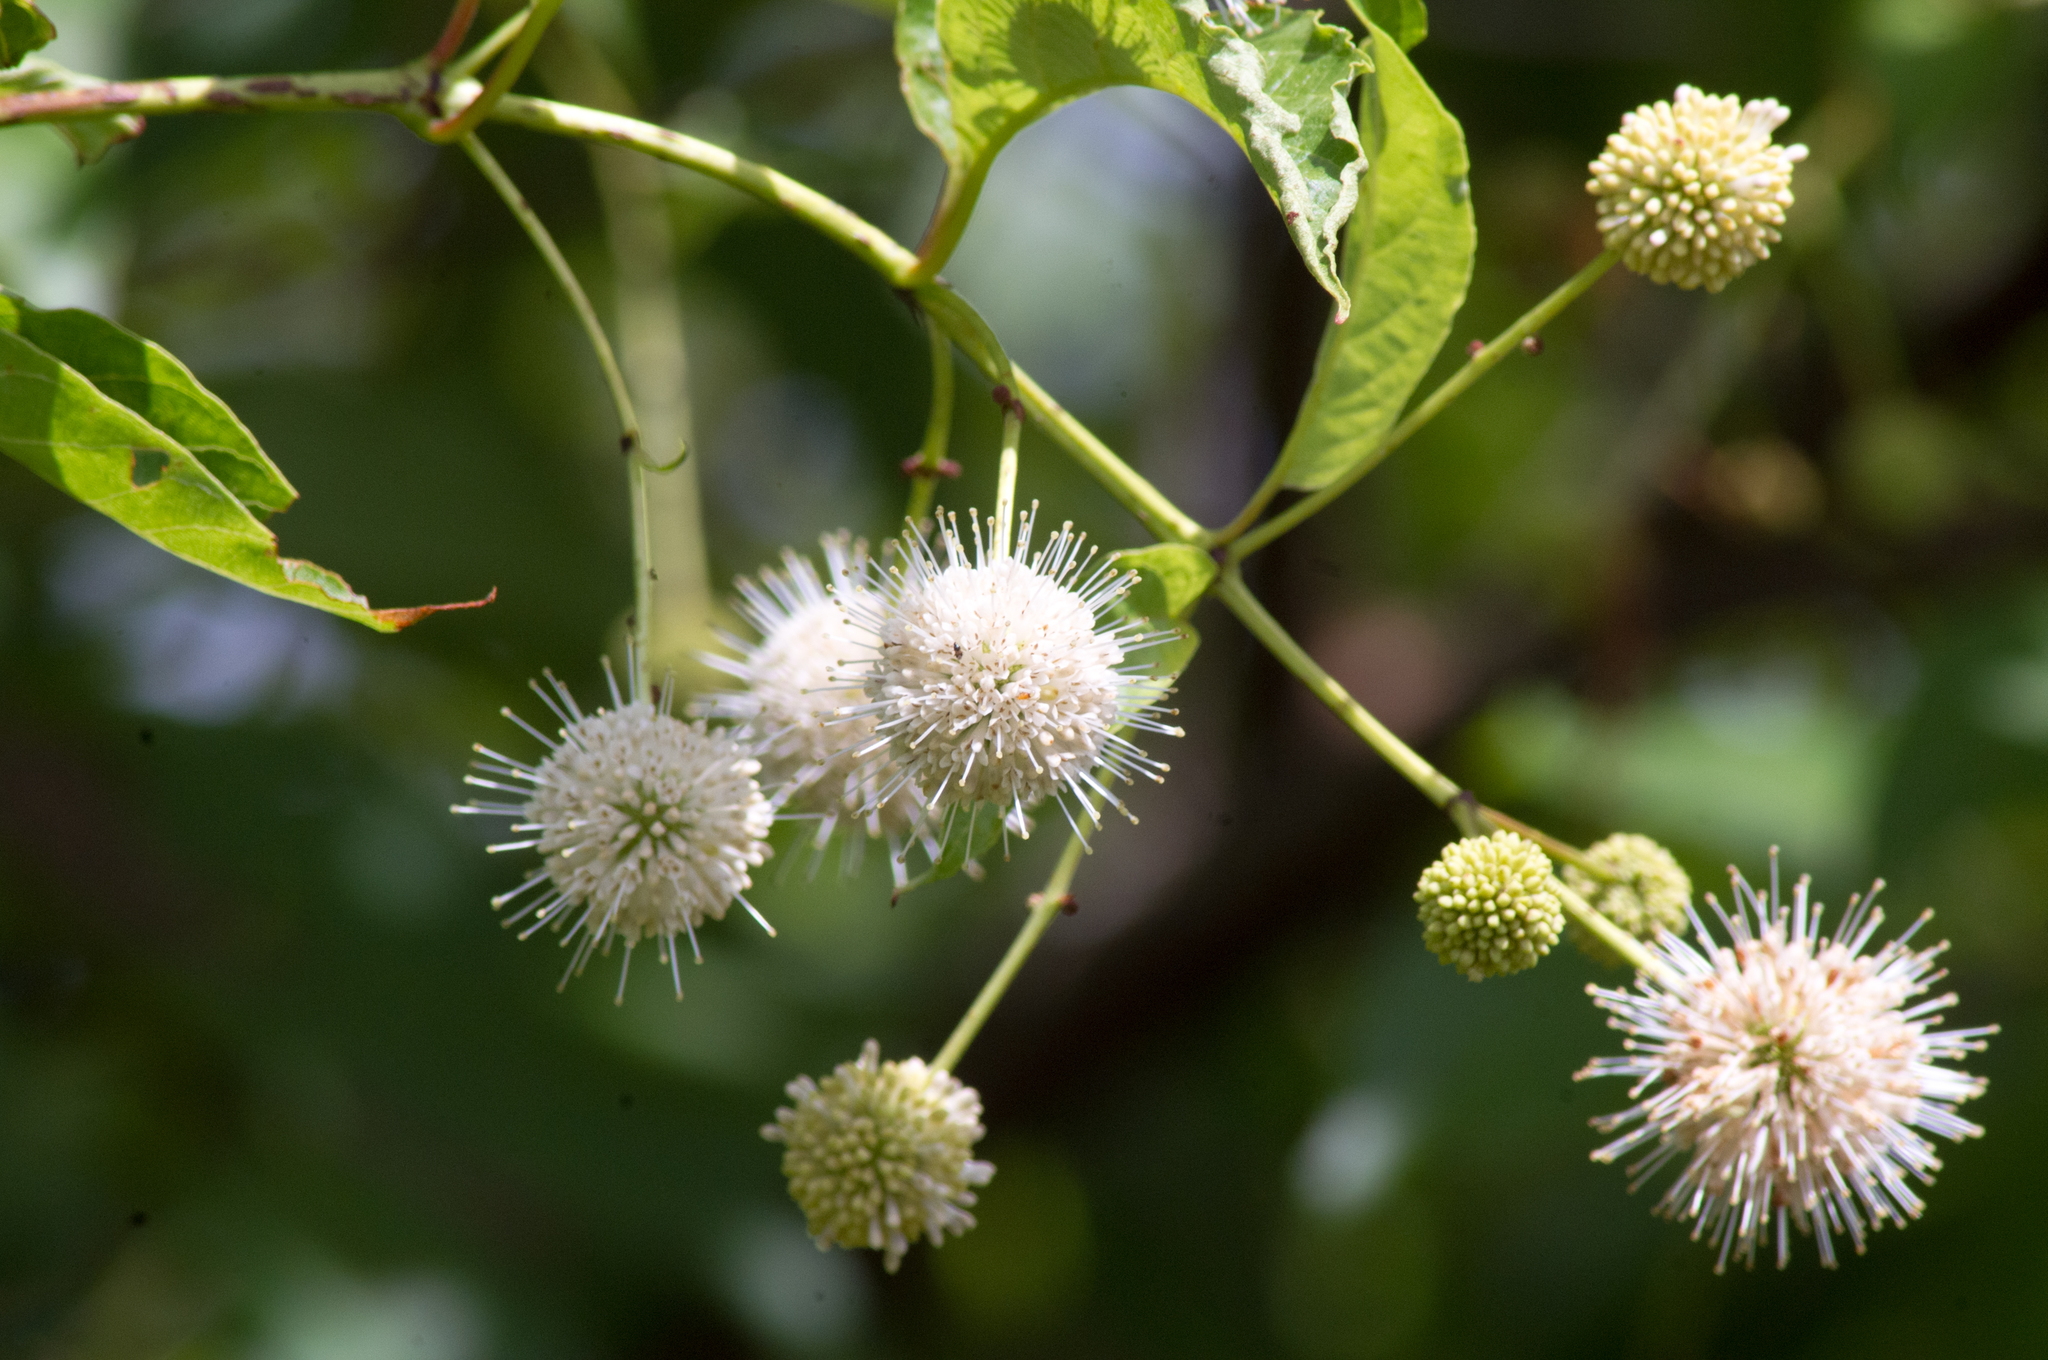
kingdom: Plantae
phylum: Tracheophyta
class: Magnoliopsida
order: Gentianales
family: Rubiaceae
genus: Cephalanthus
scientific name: Cephalanthus occidentalis
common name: Button-willow
